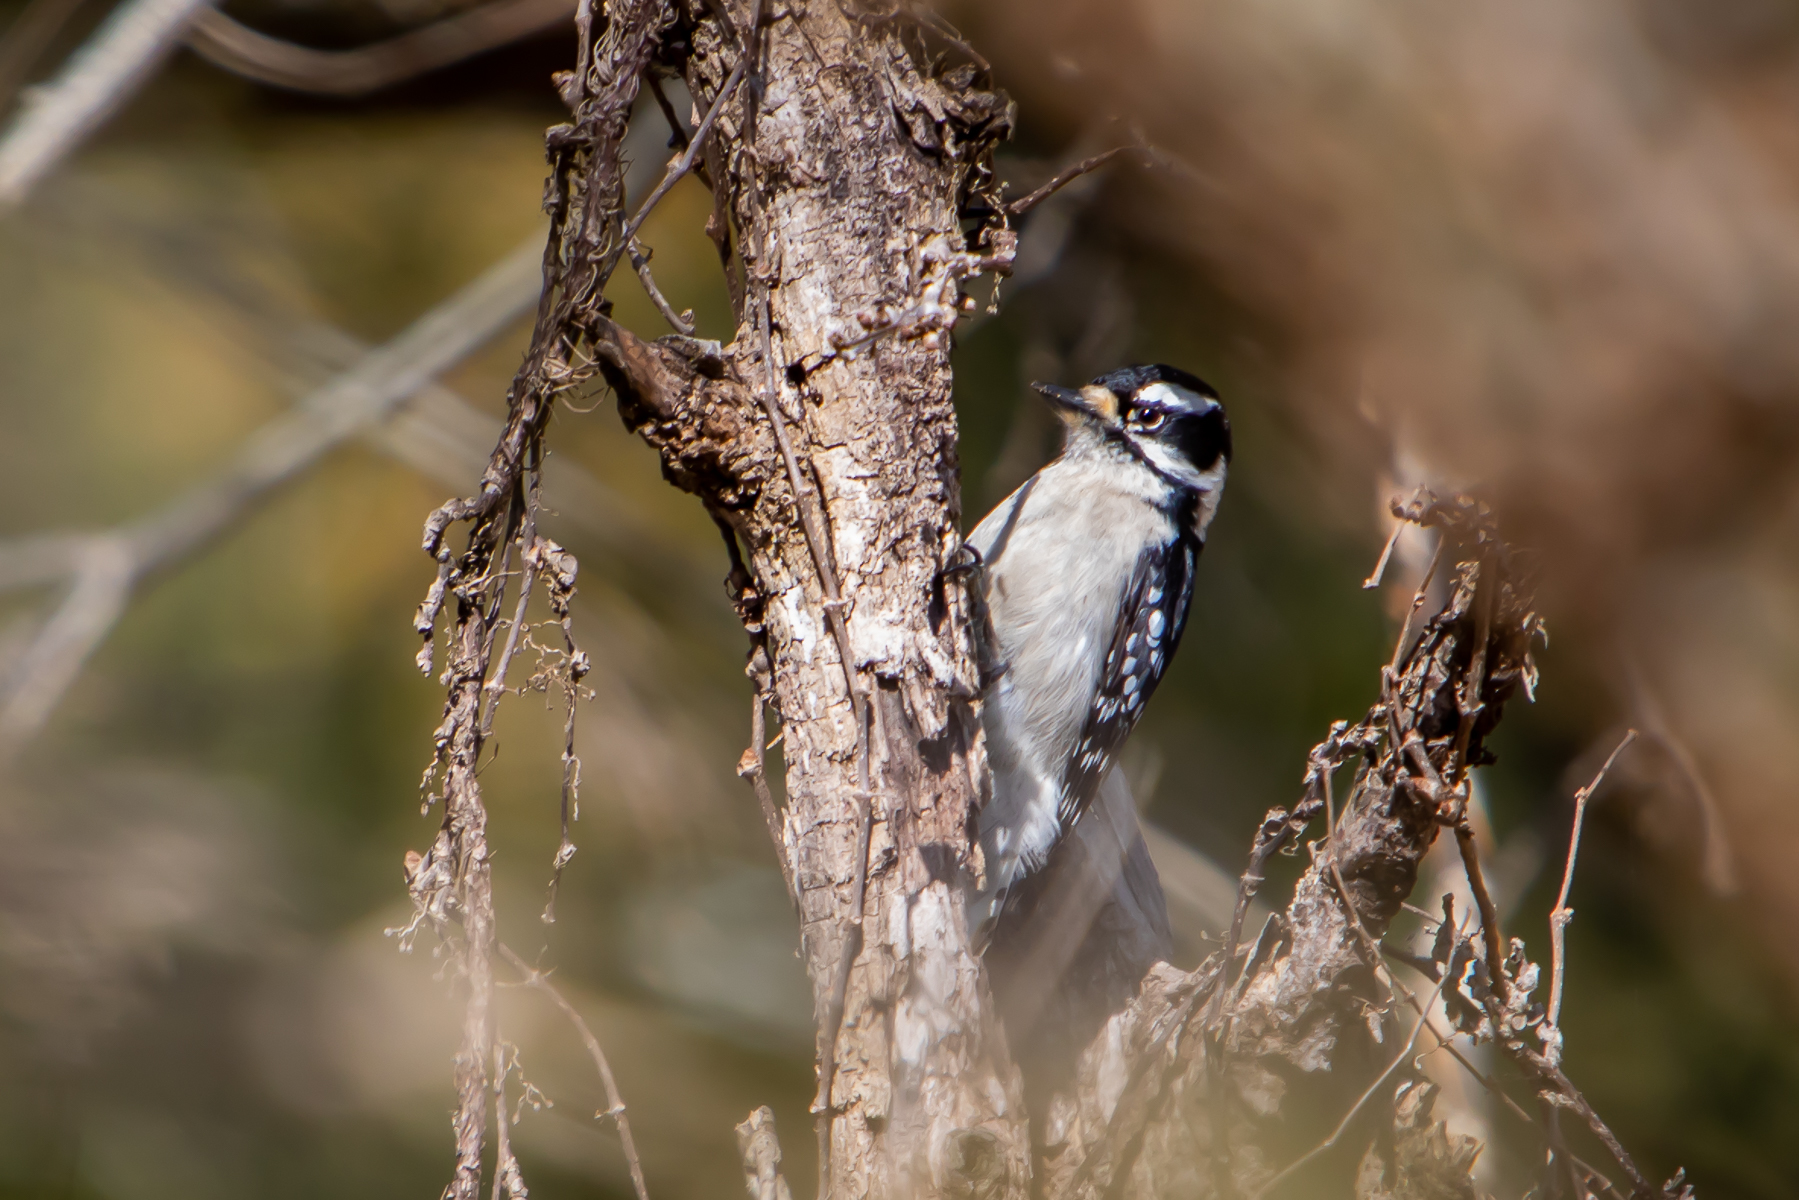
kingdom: Animalia
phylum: Chordata
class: Aves
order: Piciformes
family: Picidae
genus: Dryobates
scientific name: Dryobates pubescens
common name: Downy woodpecker
